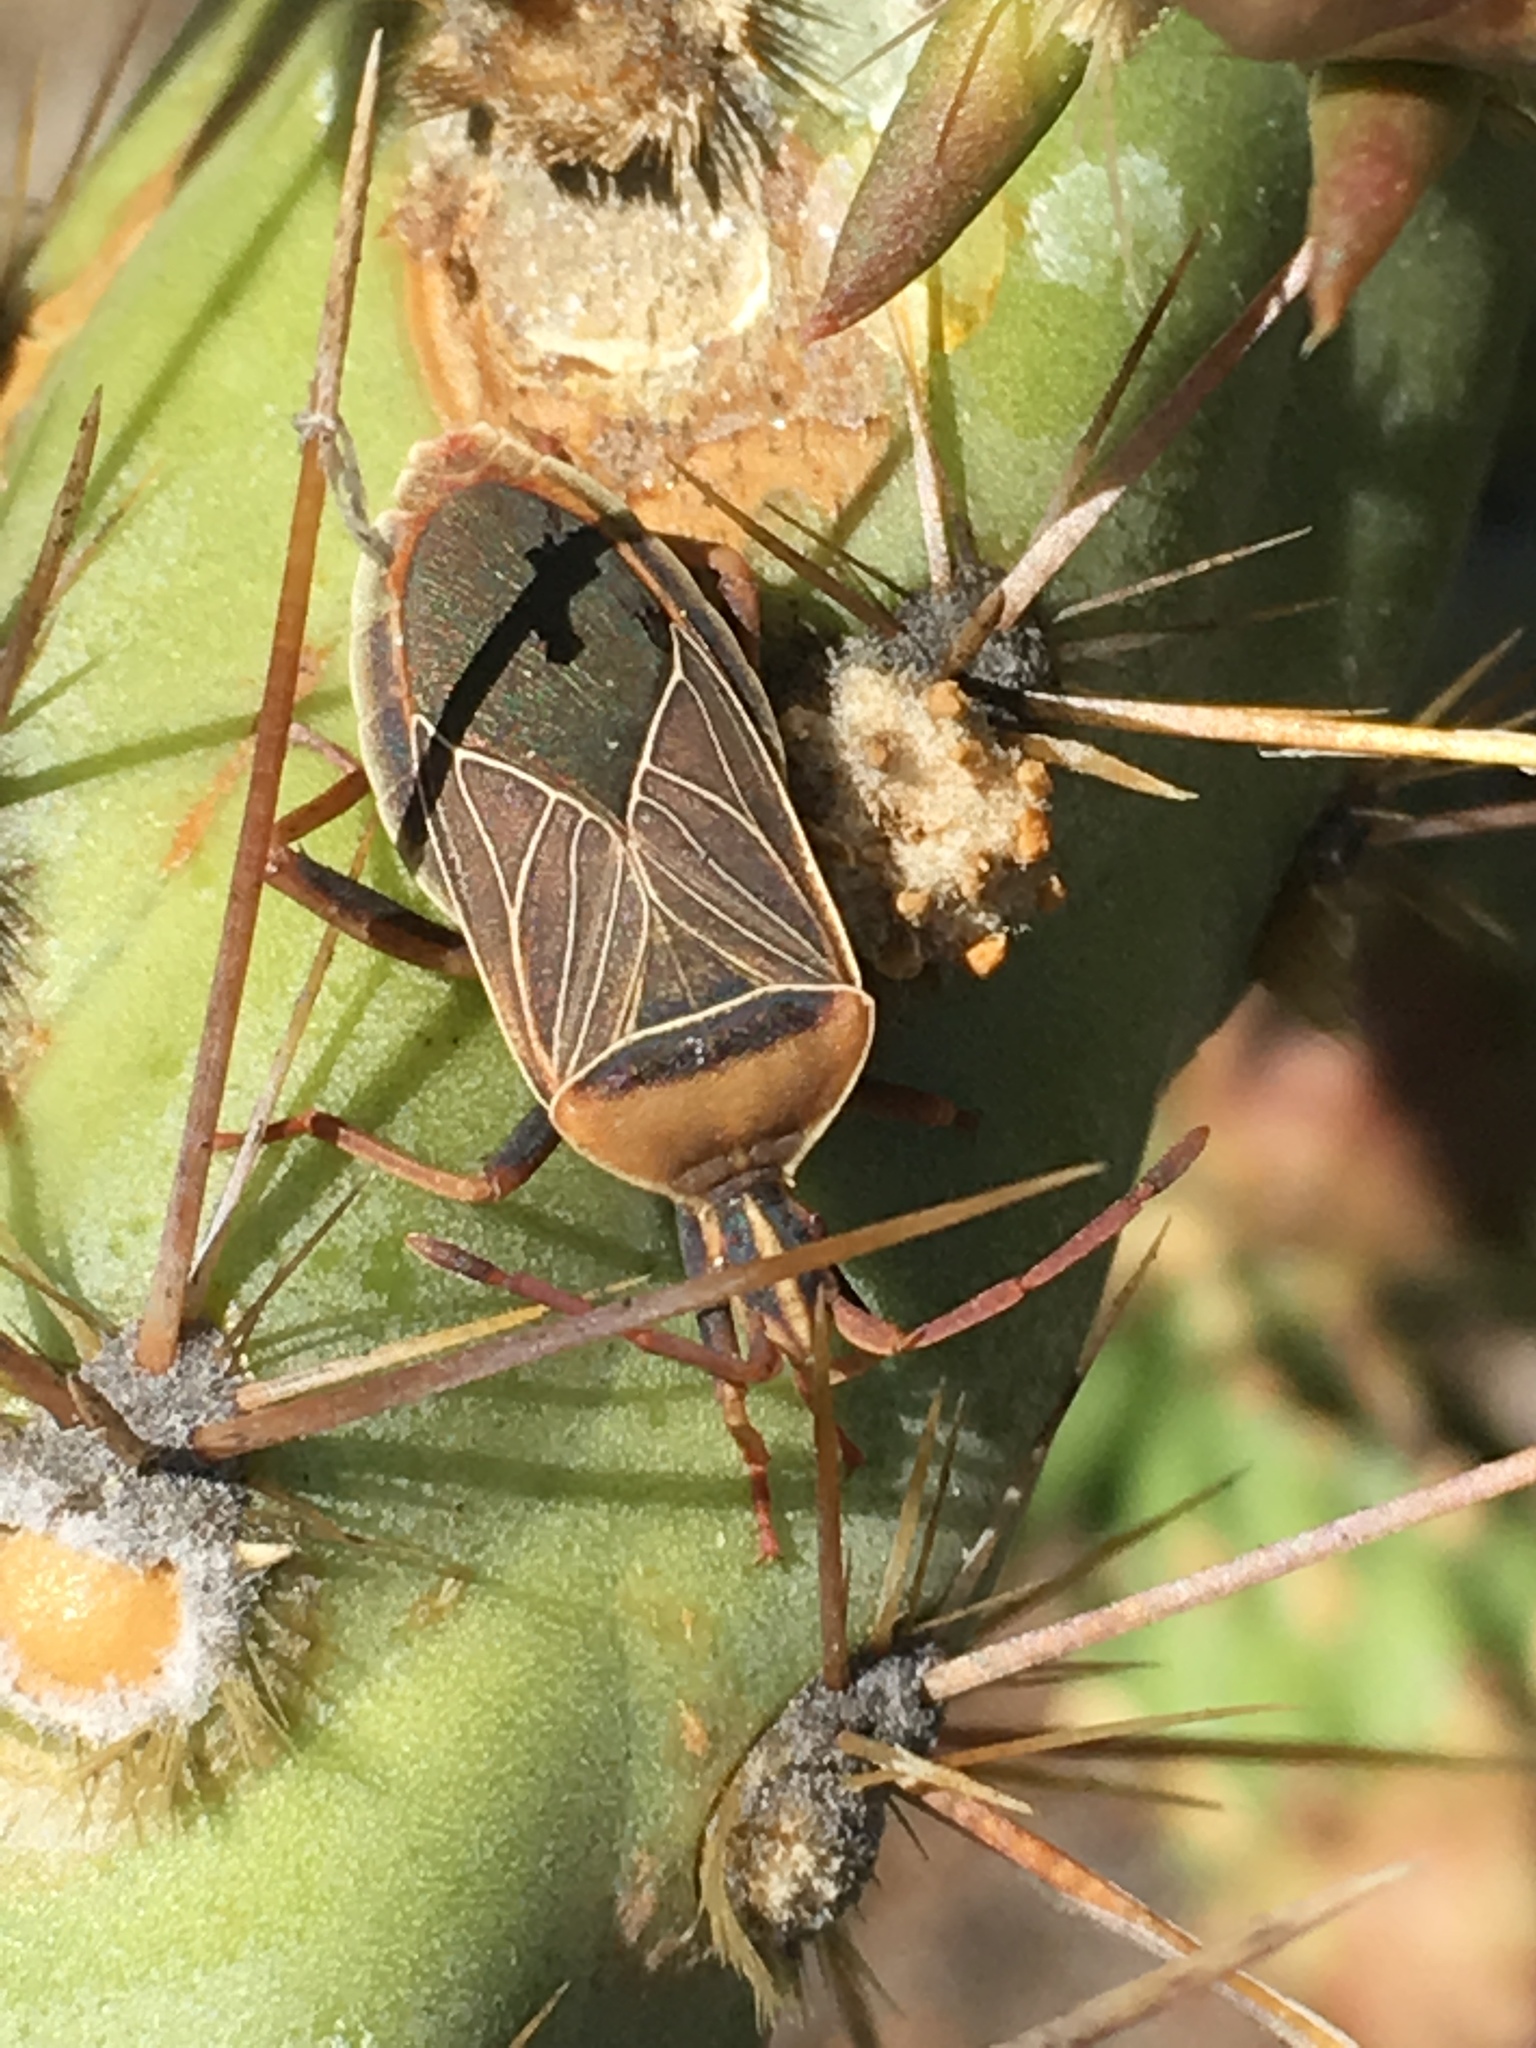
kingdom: Animalia
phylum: Arthropoda
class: Insecta
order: Hemiptera
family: Coreidae
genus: Chelinidea
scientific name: Chelinidea vittiger
